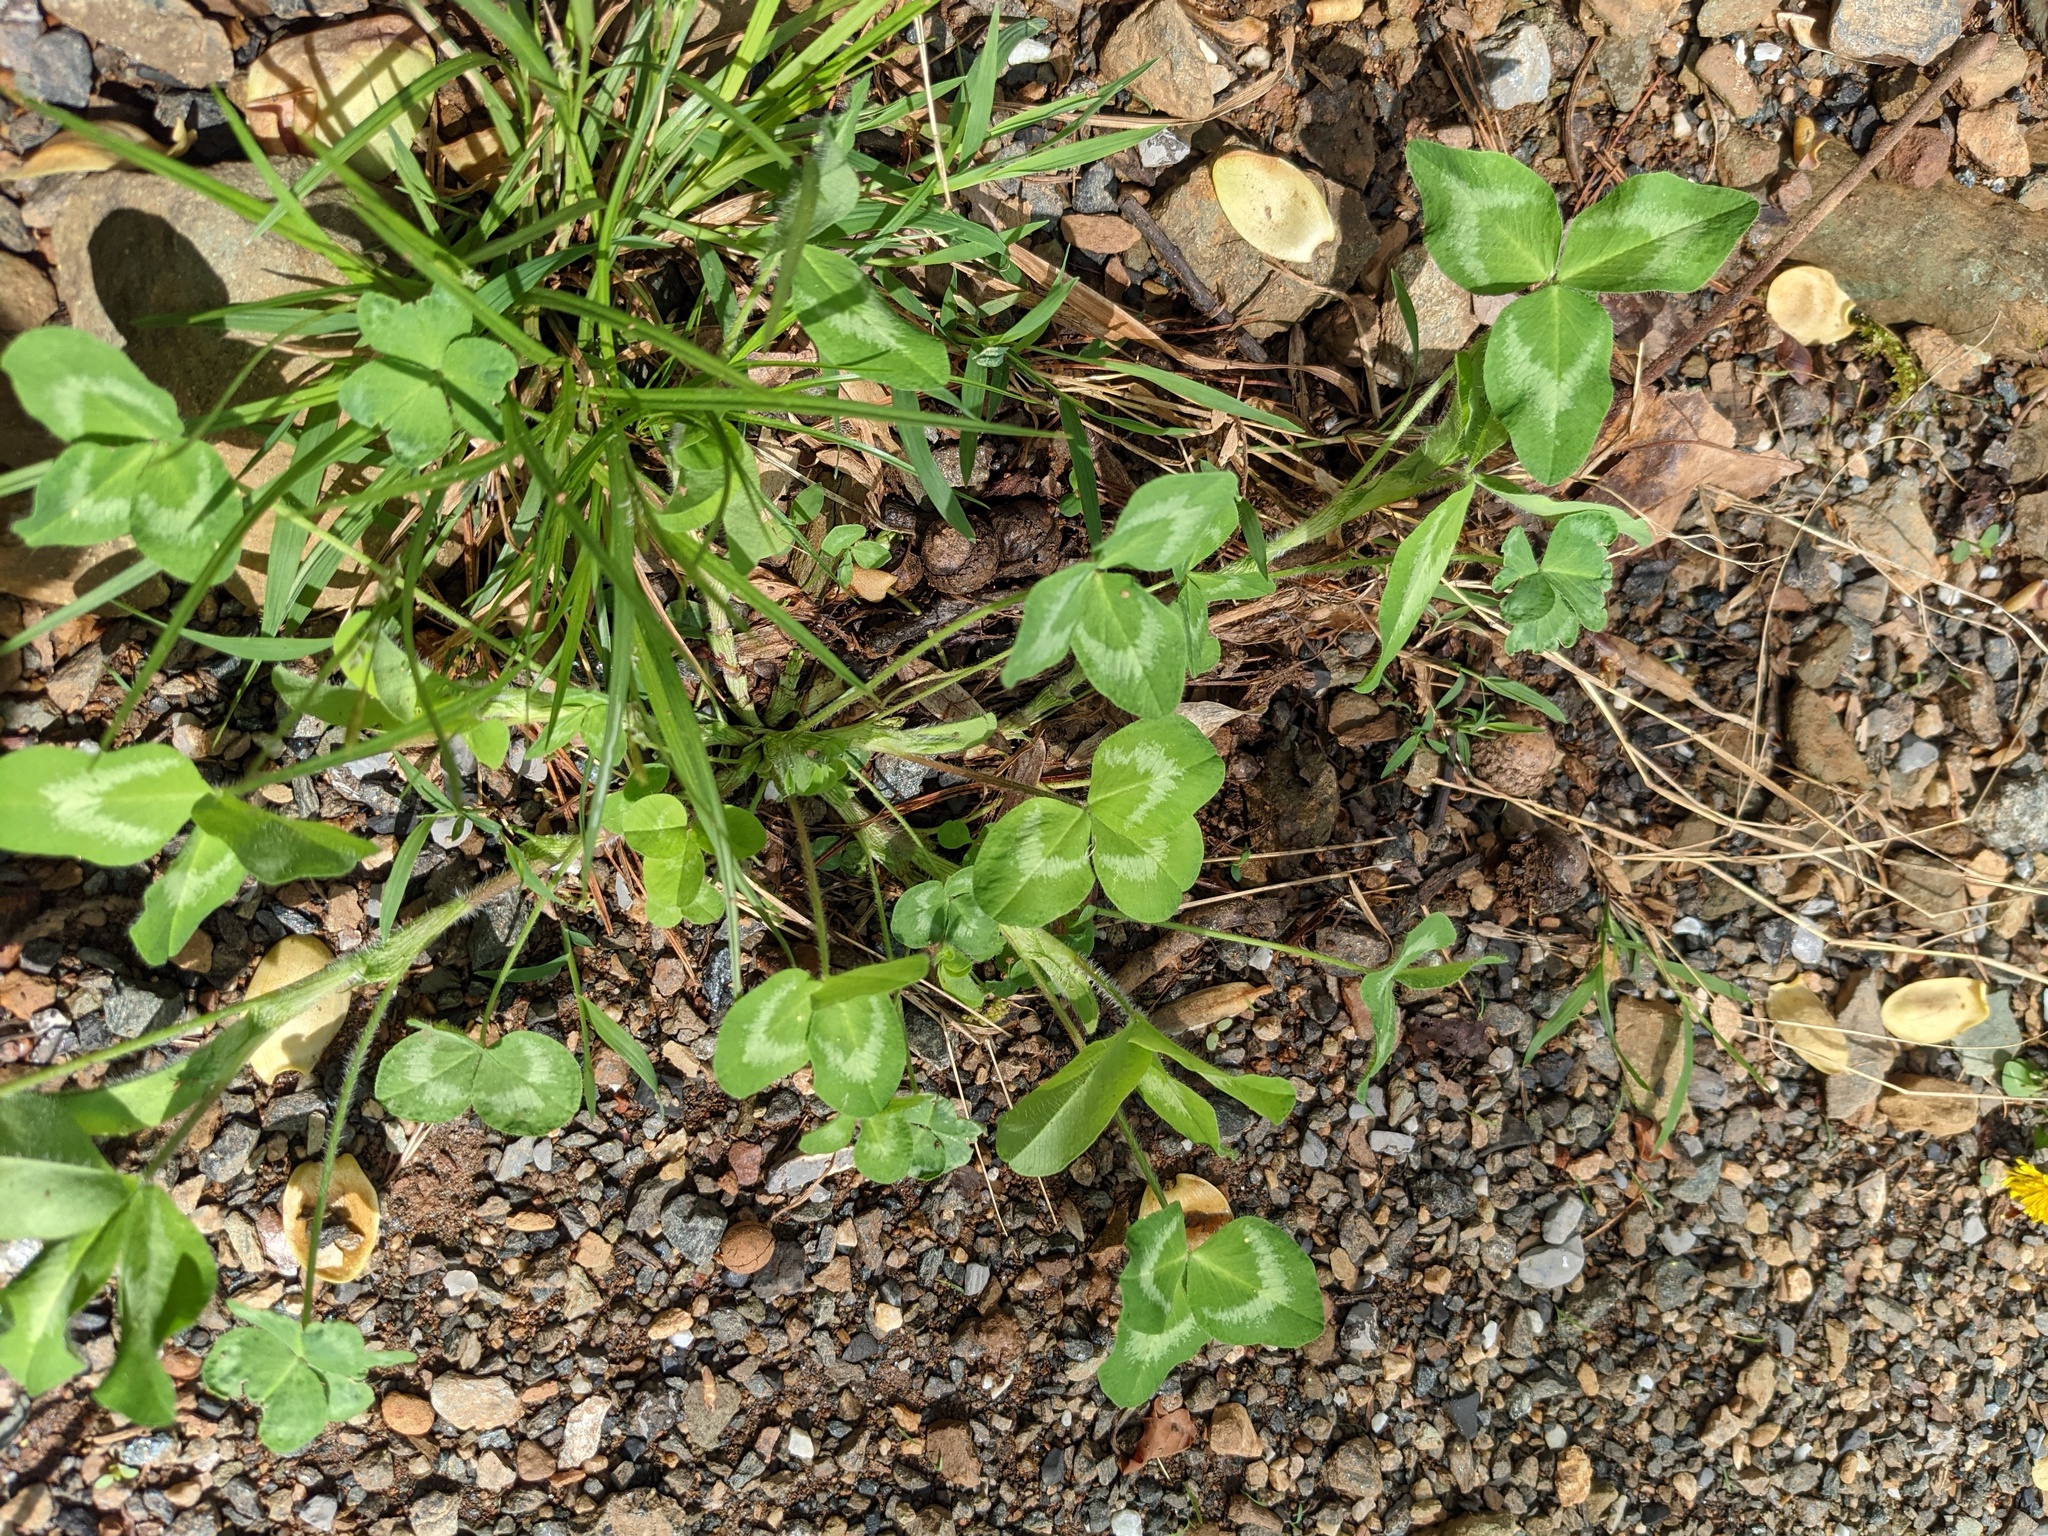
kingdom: Plantae
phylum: Tracheophyta
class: Magnoliopsida
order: Fabales
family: Fabaceae
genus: Trifolium
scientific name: Trifolium repens
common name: White clover
